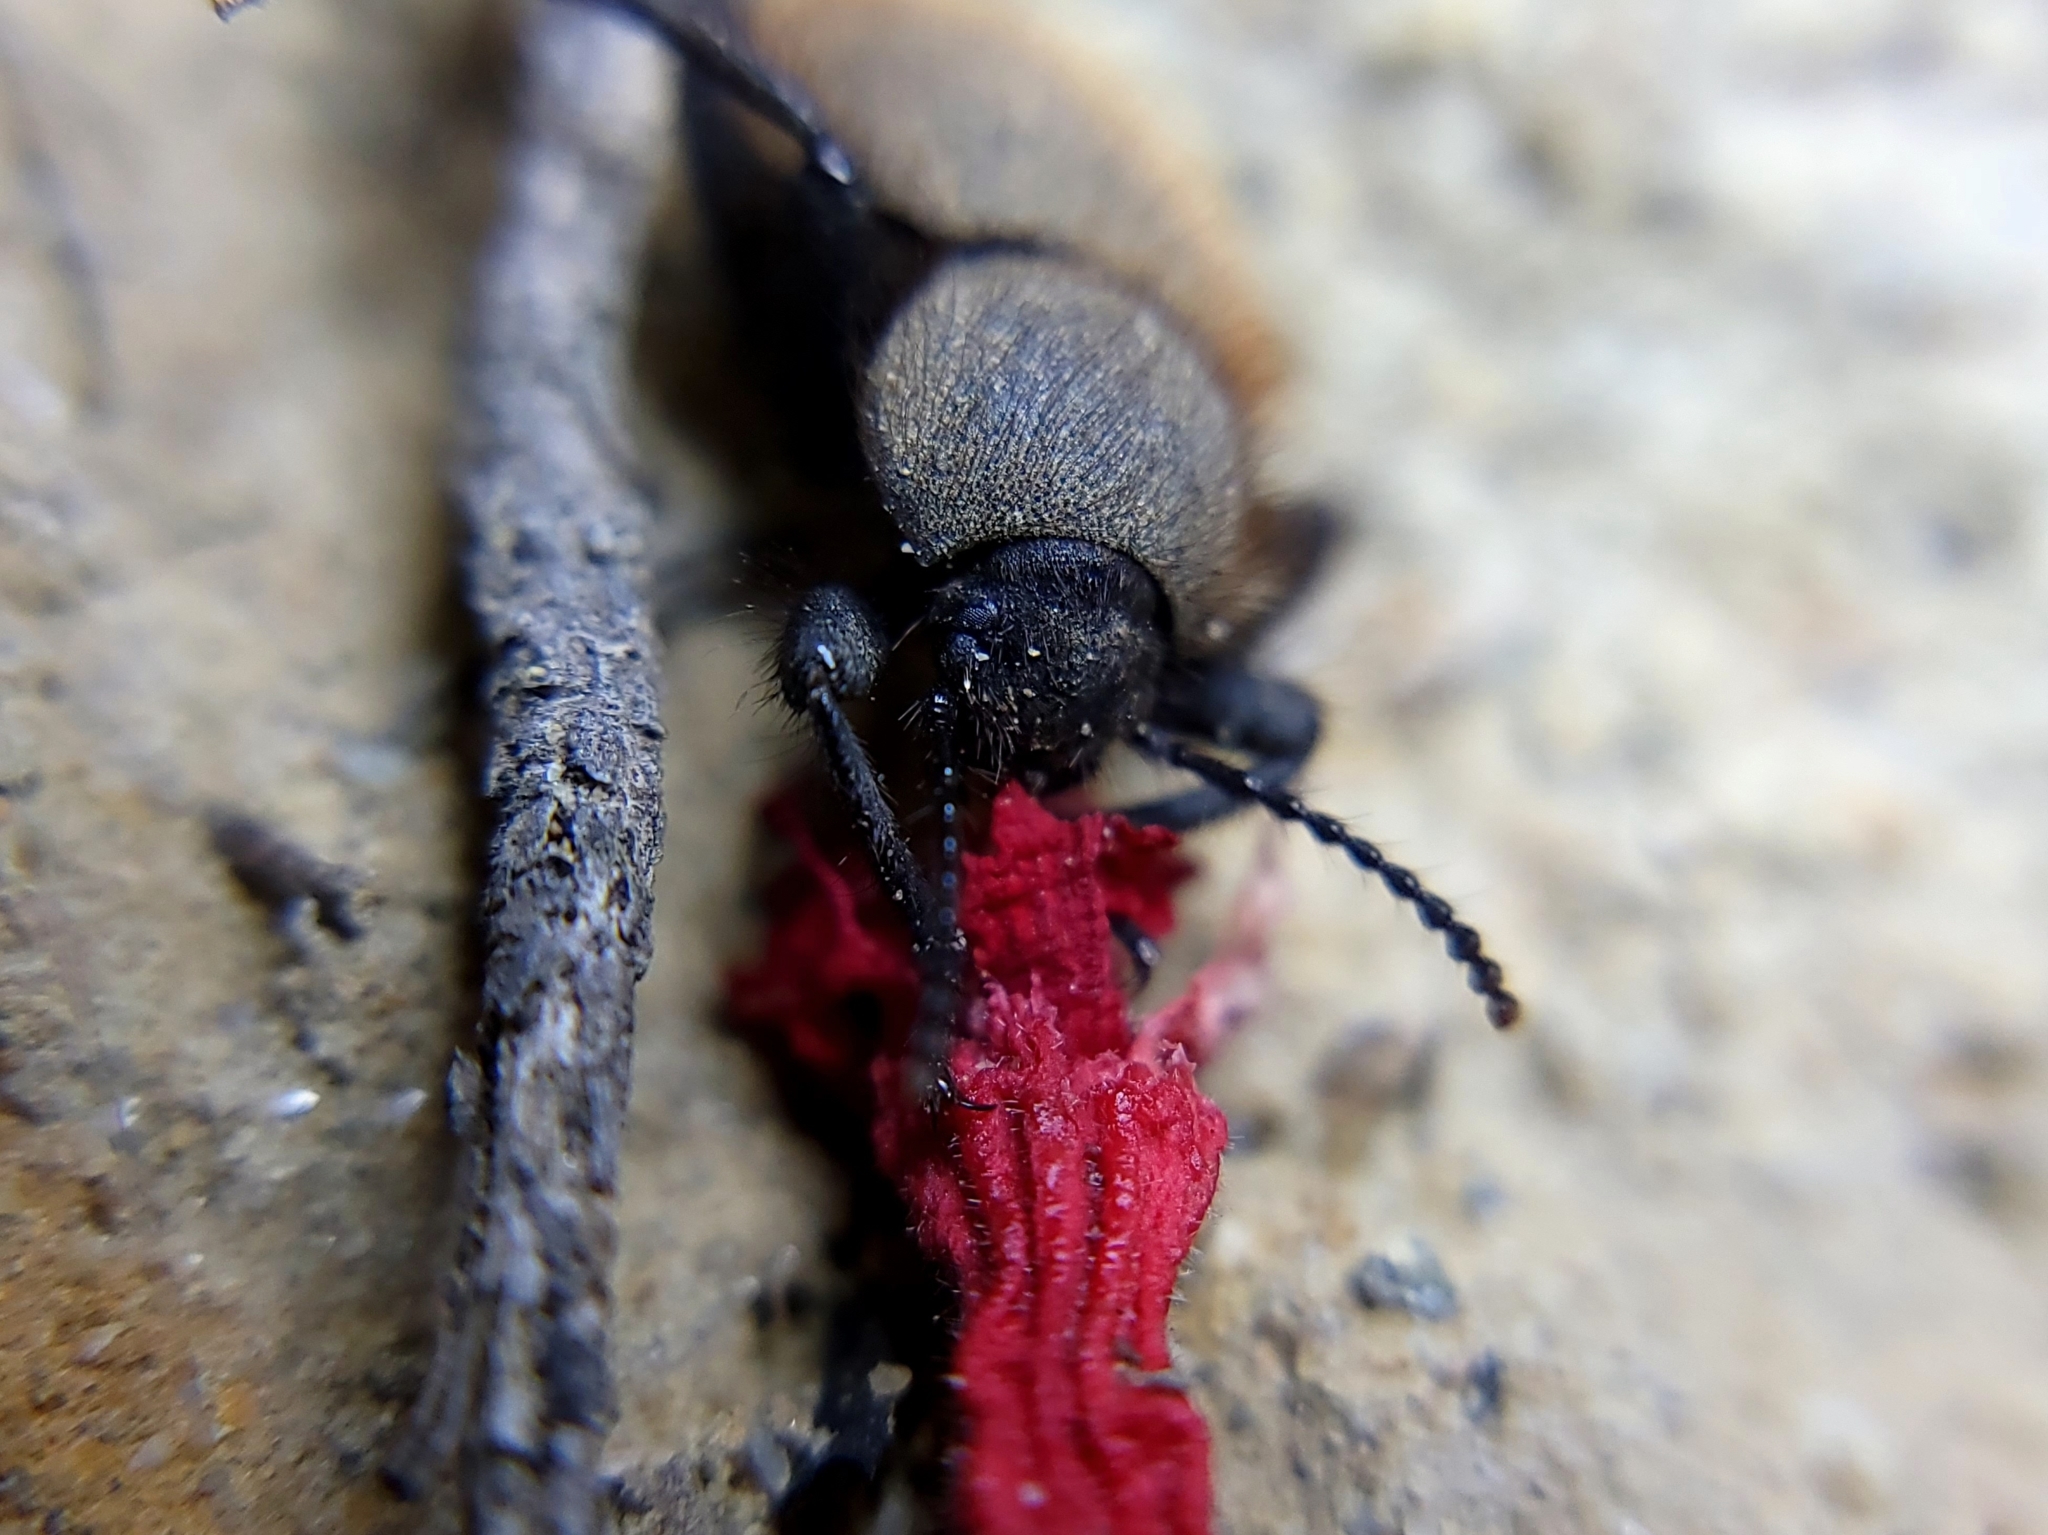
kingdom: Animalia
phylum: Arthropoda
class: Insecta
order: Coleoptera
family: Tenebrionidae
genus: Eleodes
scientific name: Eleodes osculans
